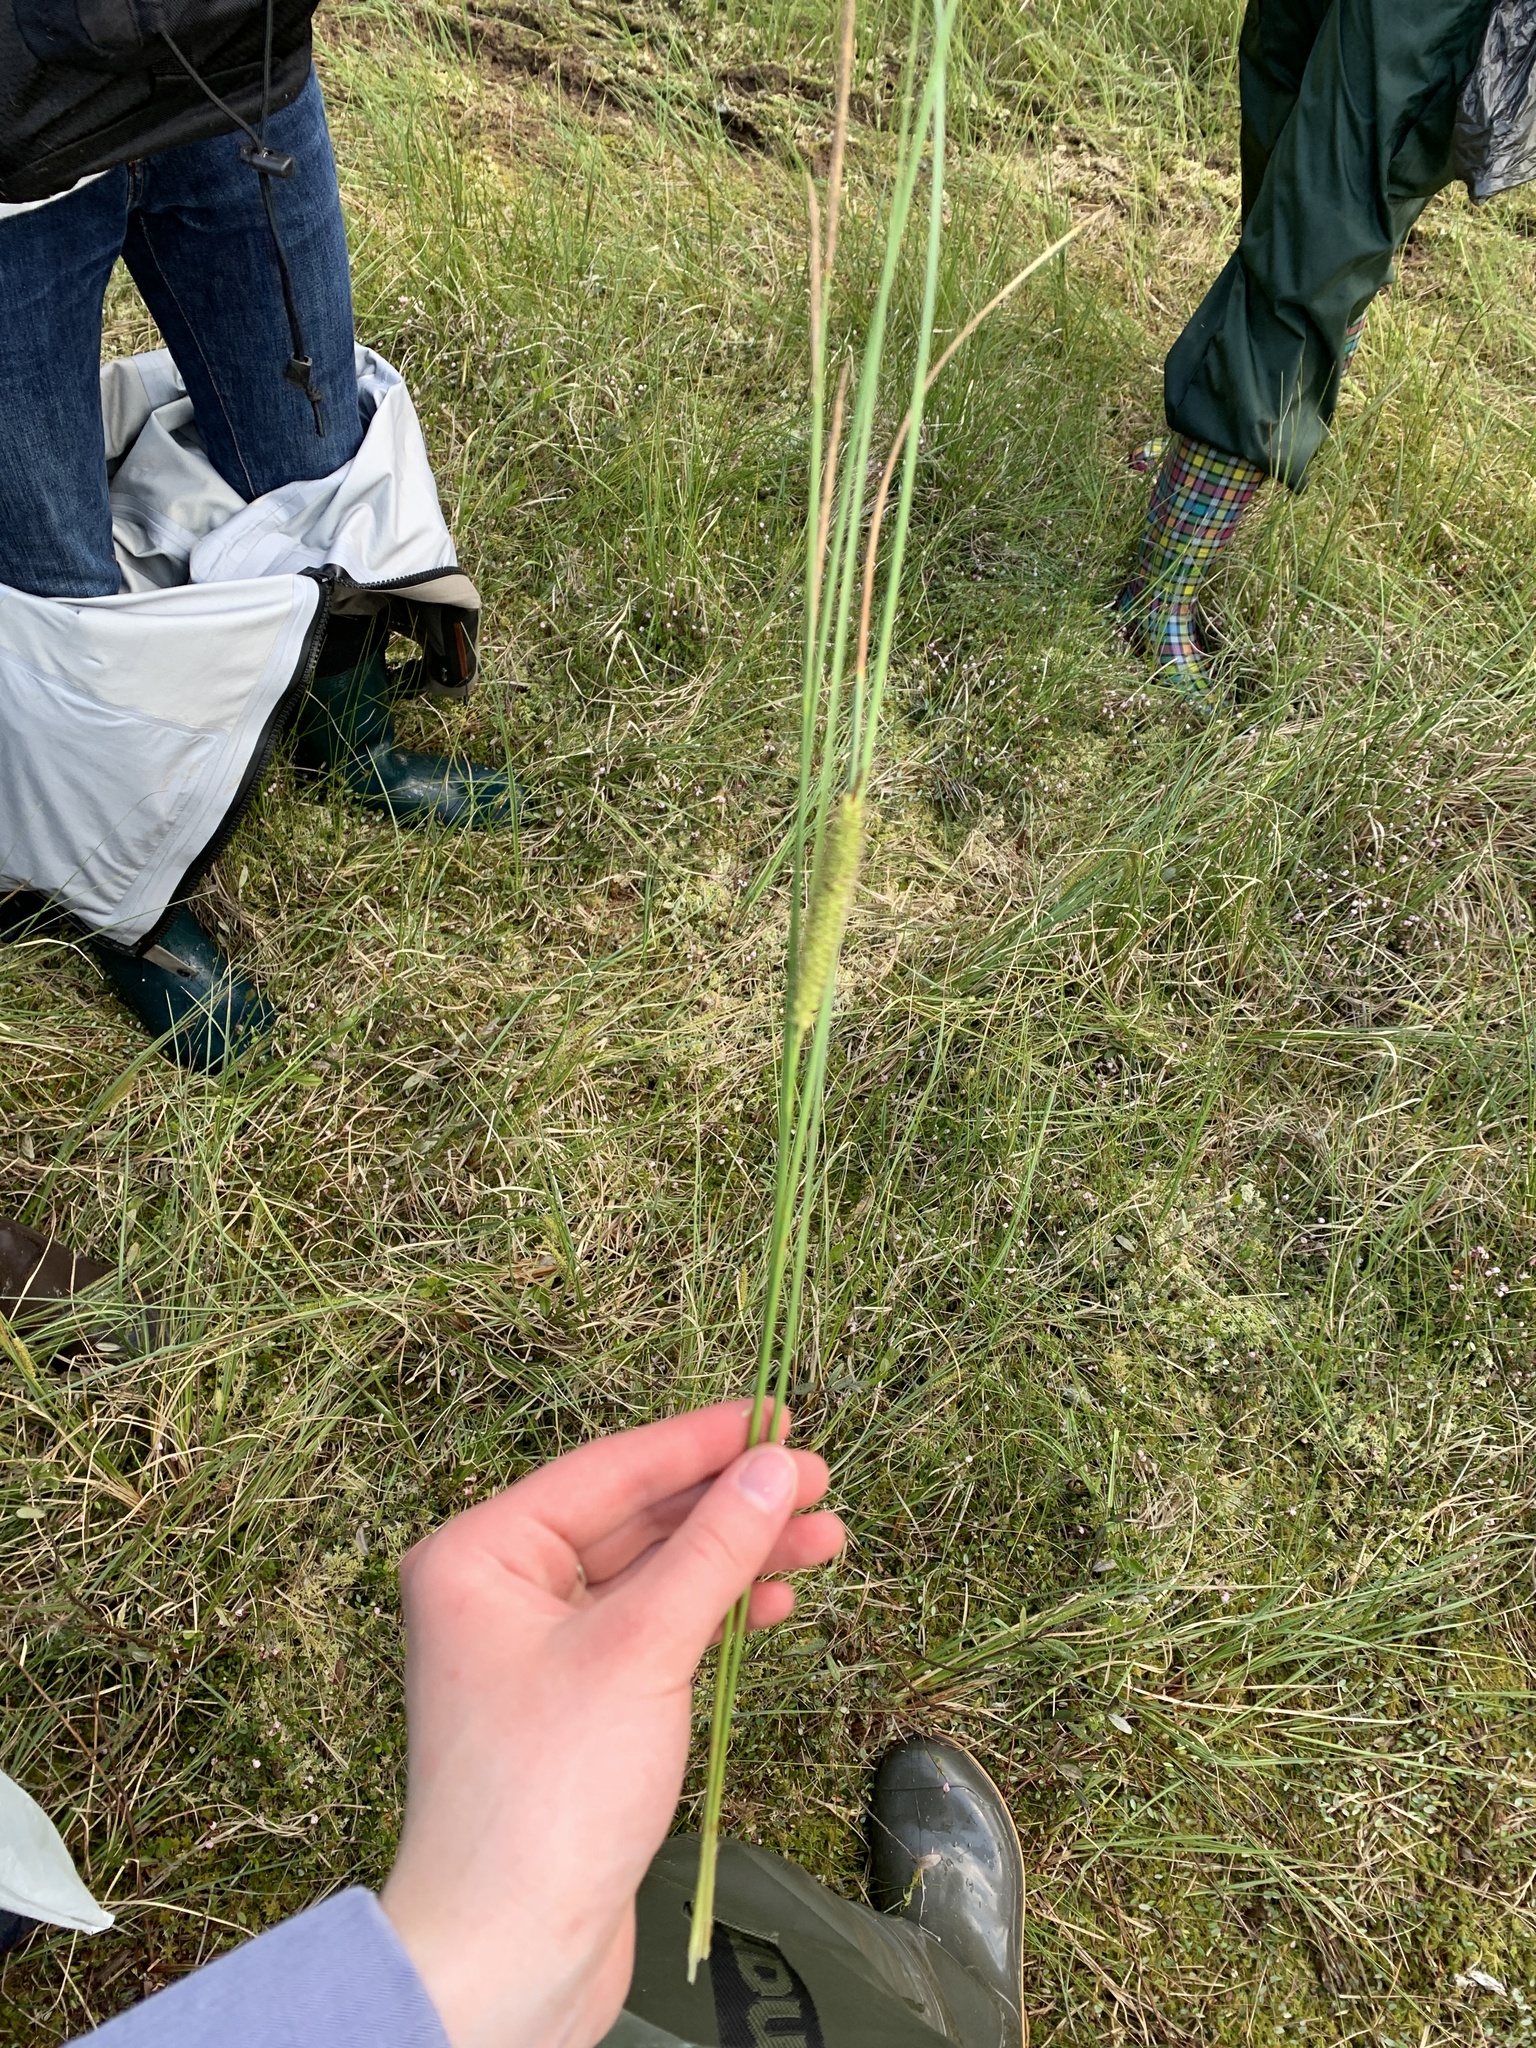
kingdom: Plantae
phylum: Tracheophyta
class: Liliopsida
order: Poales
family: Cyperaceae
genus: Carex
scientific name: Carex rostrata
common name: Bottle sedge
